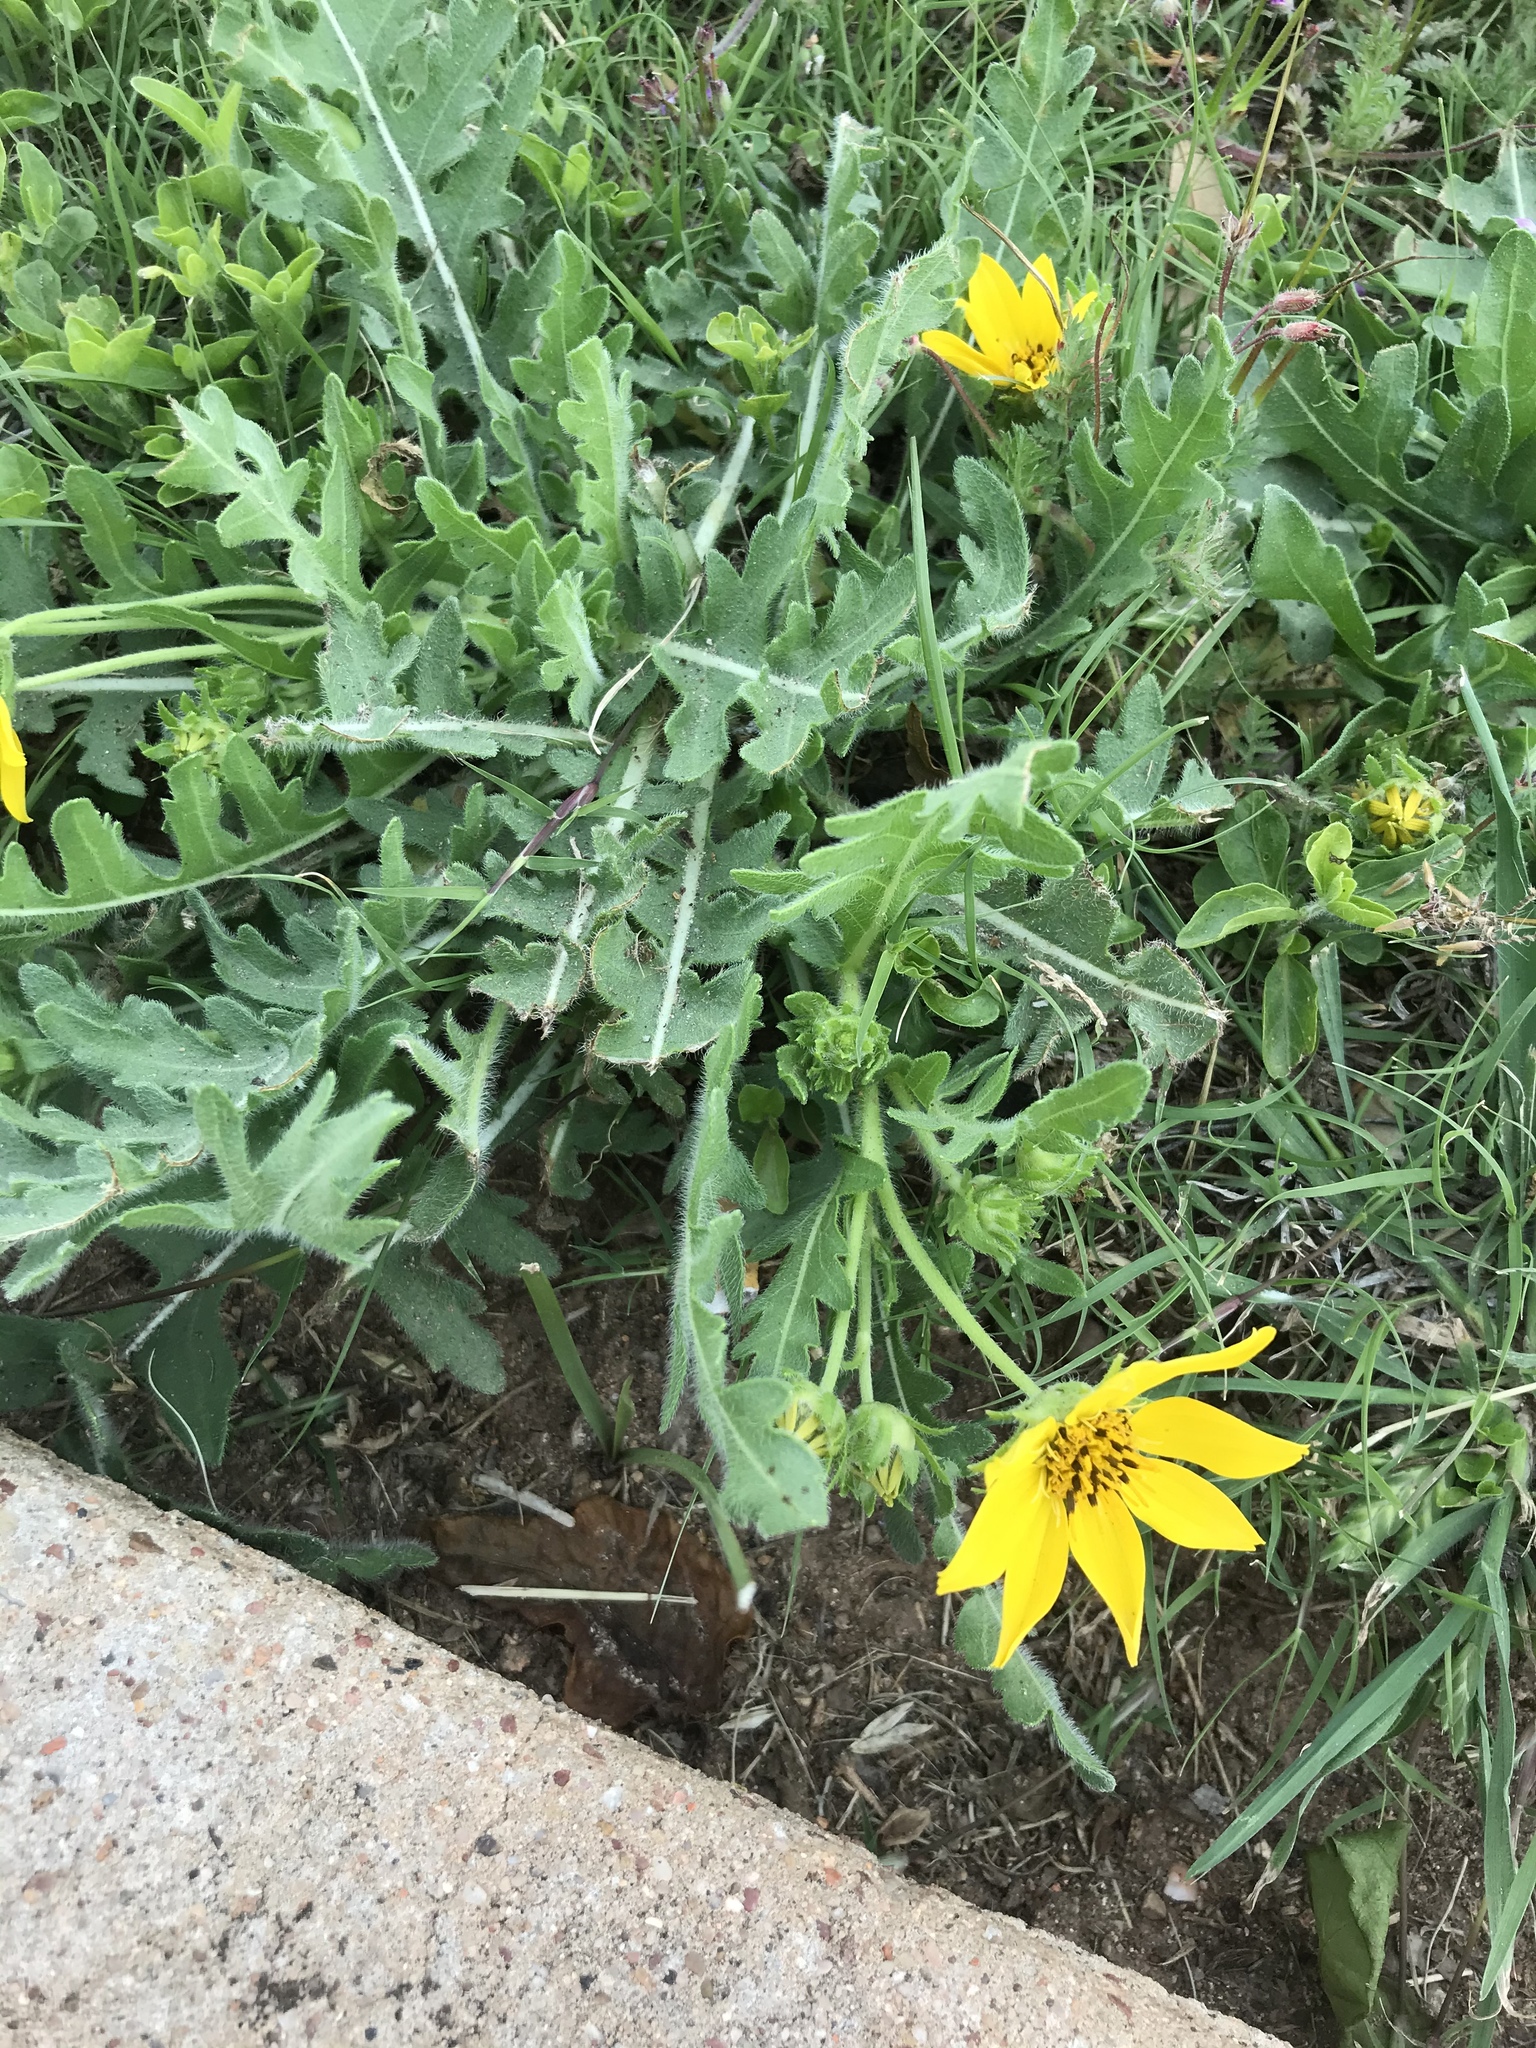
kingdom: Plantae
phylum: Tracheophyta
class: Magnoliopsida
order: Asterales
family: Asteraceae
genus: Engelmannia
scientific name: Engelmannia peristenia
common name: Engelmann's daisy
